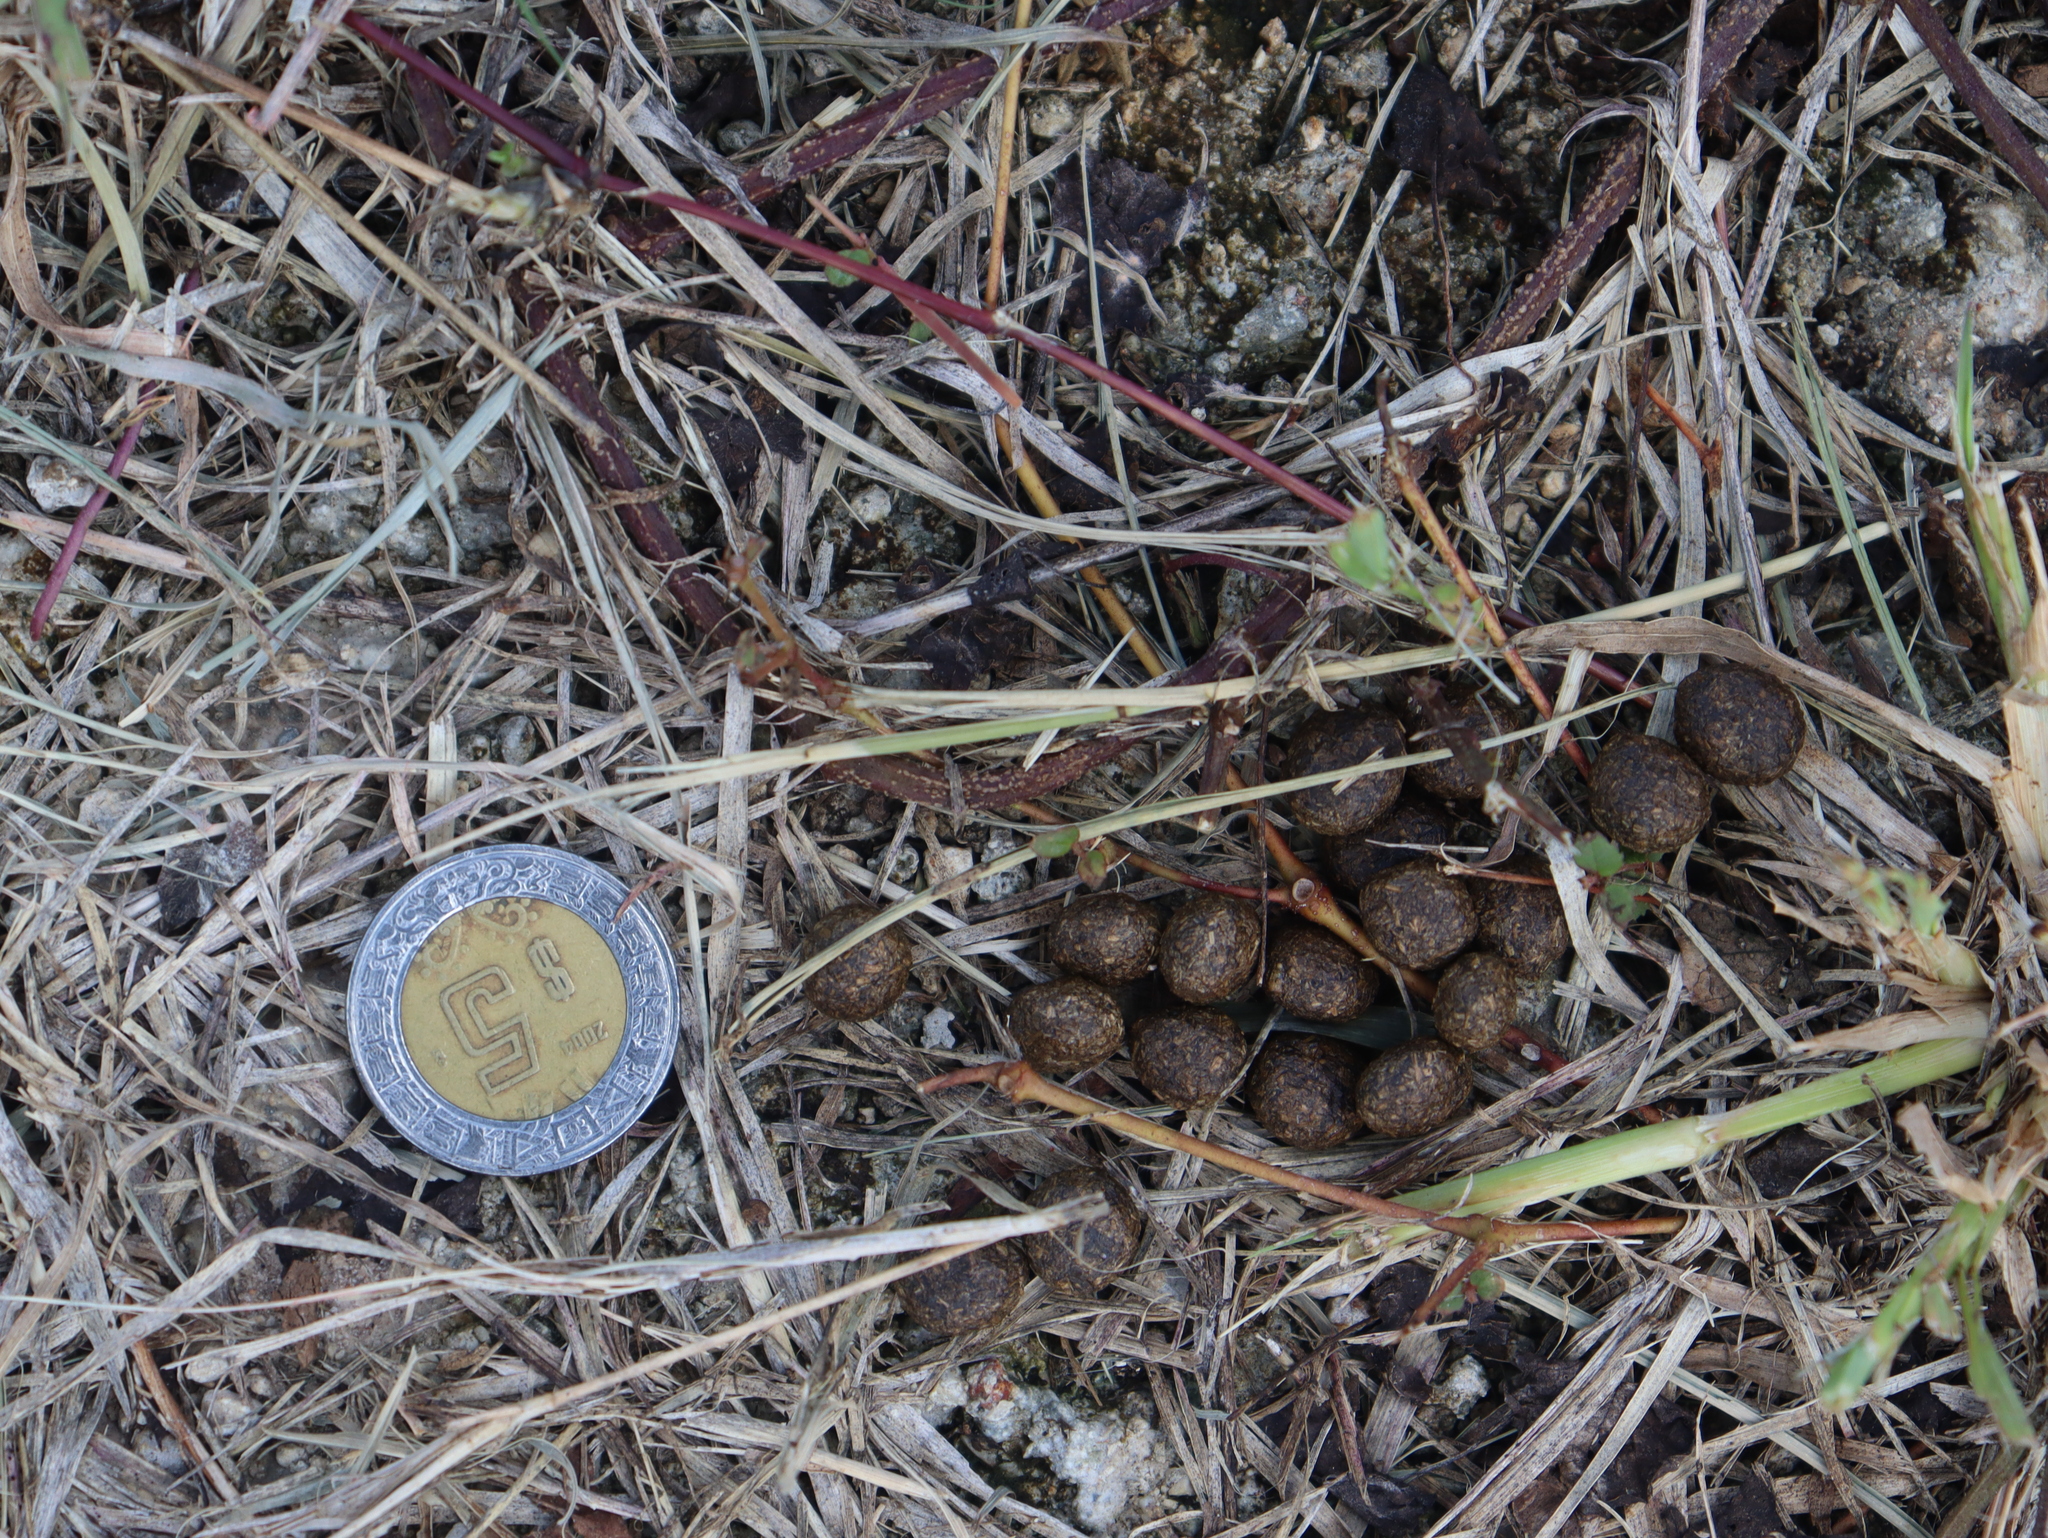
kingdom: Animalia
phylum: Chordata
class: Mammalia
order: Lagomorpha
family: Leporidae
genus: Sylvilagus
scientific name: Sylvilagus floridanus
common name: Eastern cottontail
